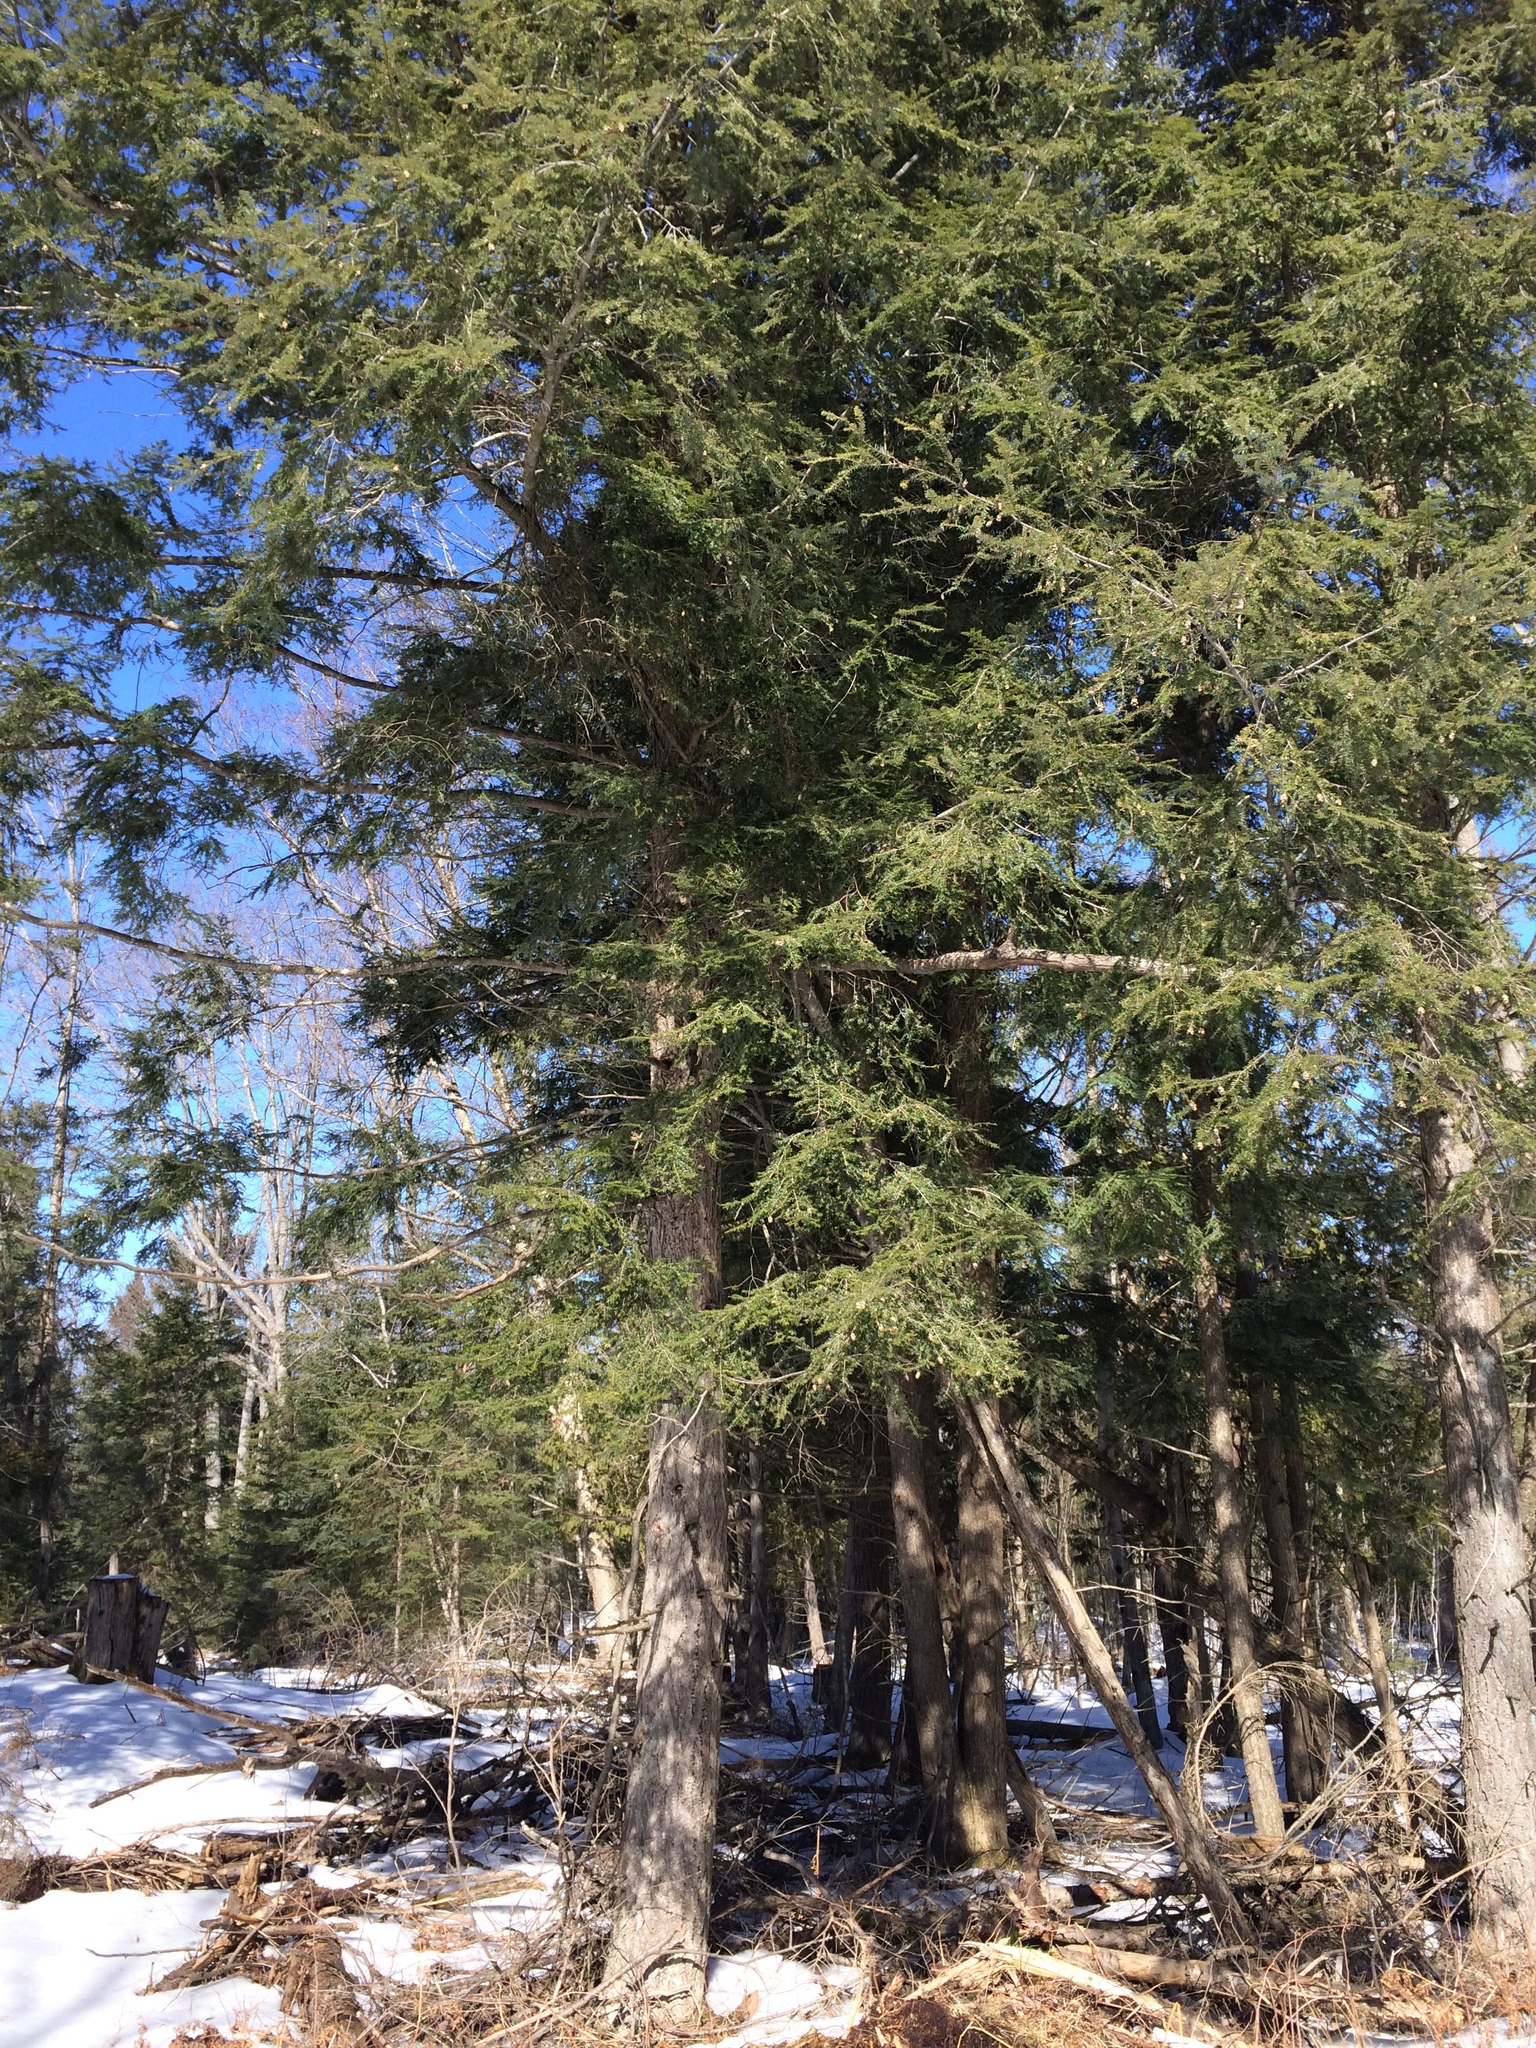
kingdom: Plantae
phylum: Tracheophyta
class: Pinopsida
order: Pinales
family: Pinaceae
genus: Tsuga
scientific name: Tsuga canadensis
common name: Eastern hemlock
